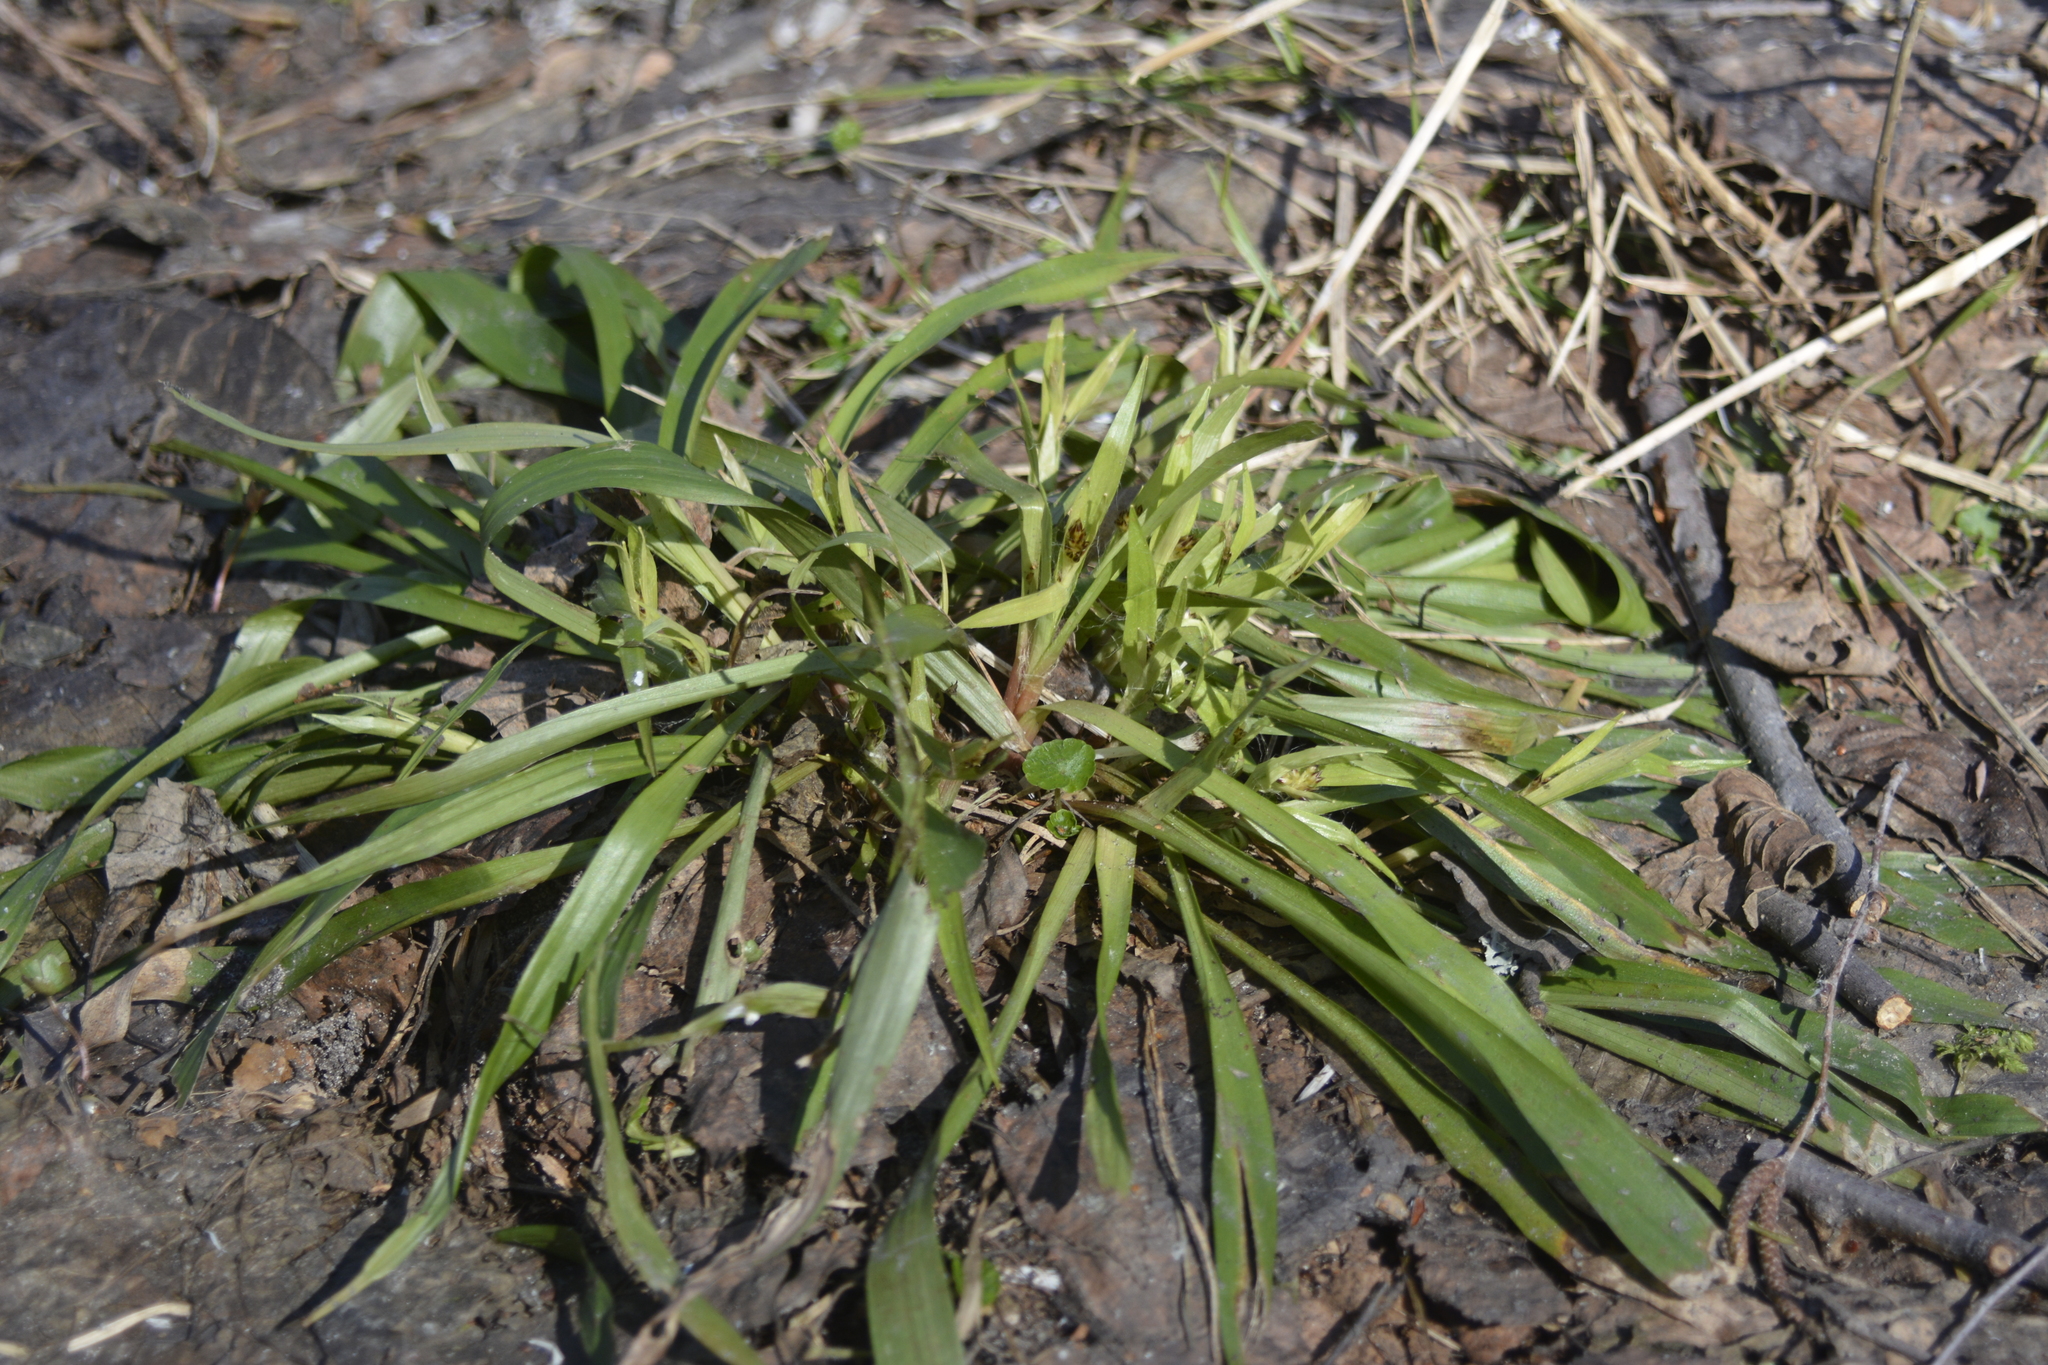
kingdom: Plantae
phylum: Tracheophyta
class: Liliopsida
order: Poales
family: Juncaceae
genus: Luzula
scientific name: Luzula pilosa
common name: Hairy wood-rush
